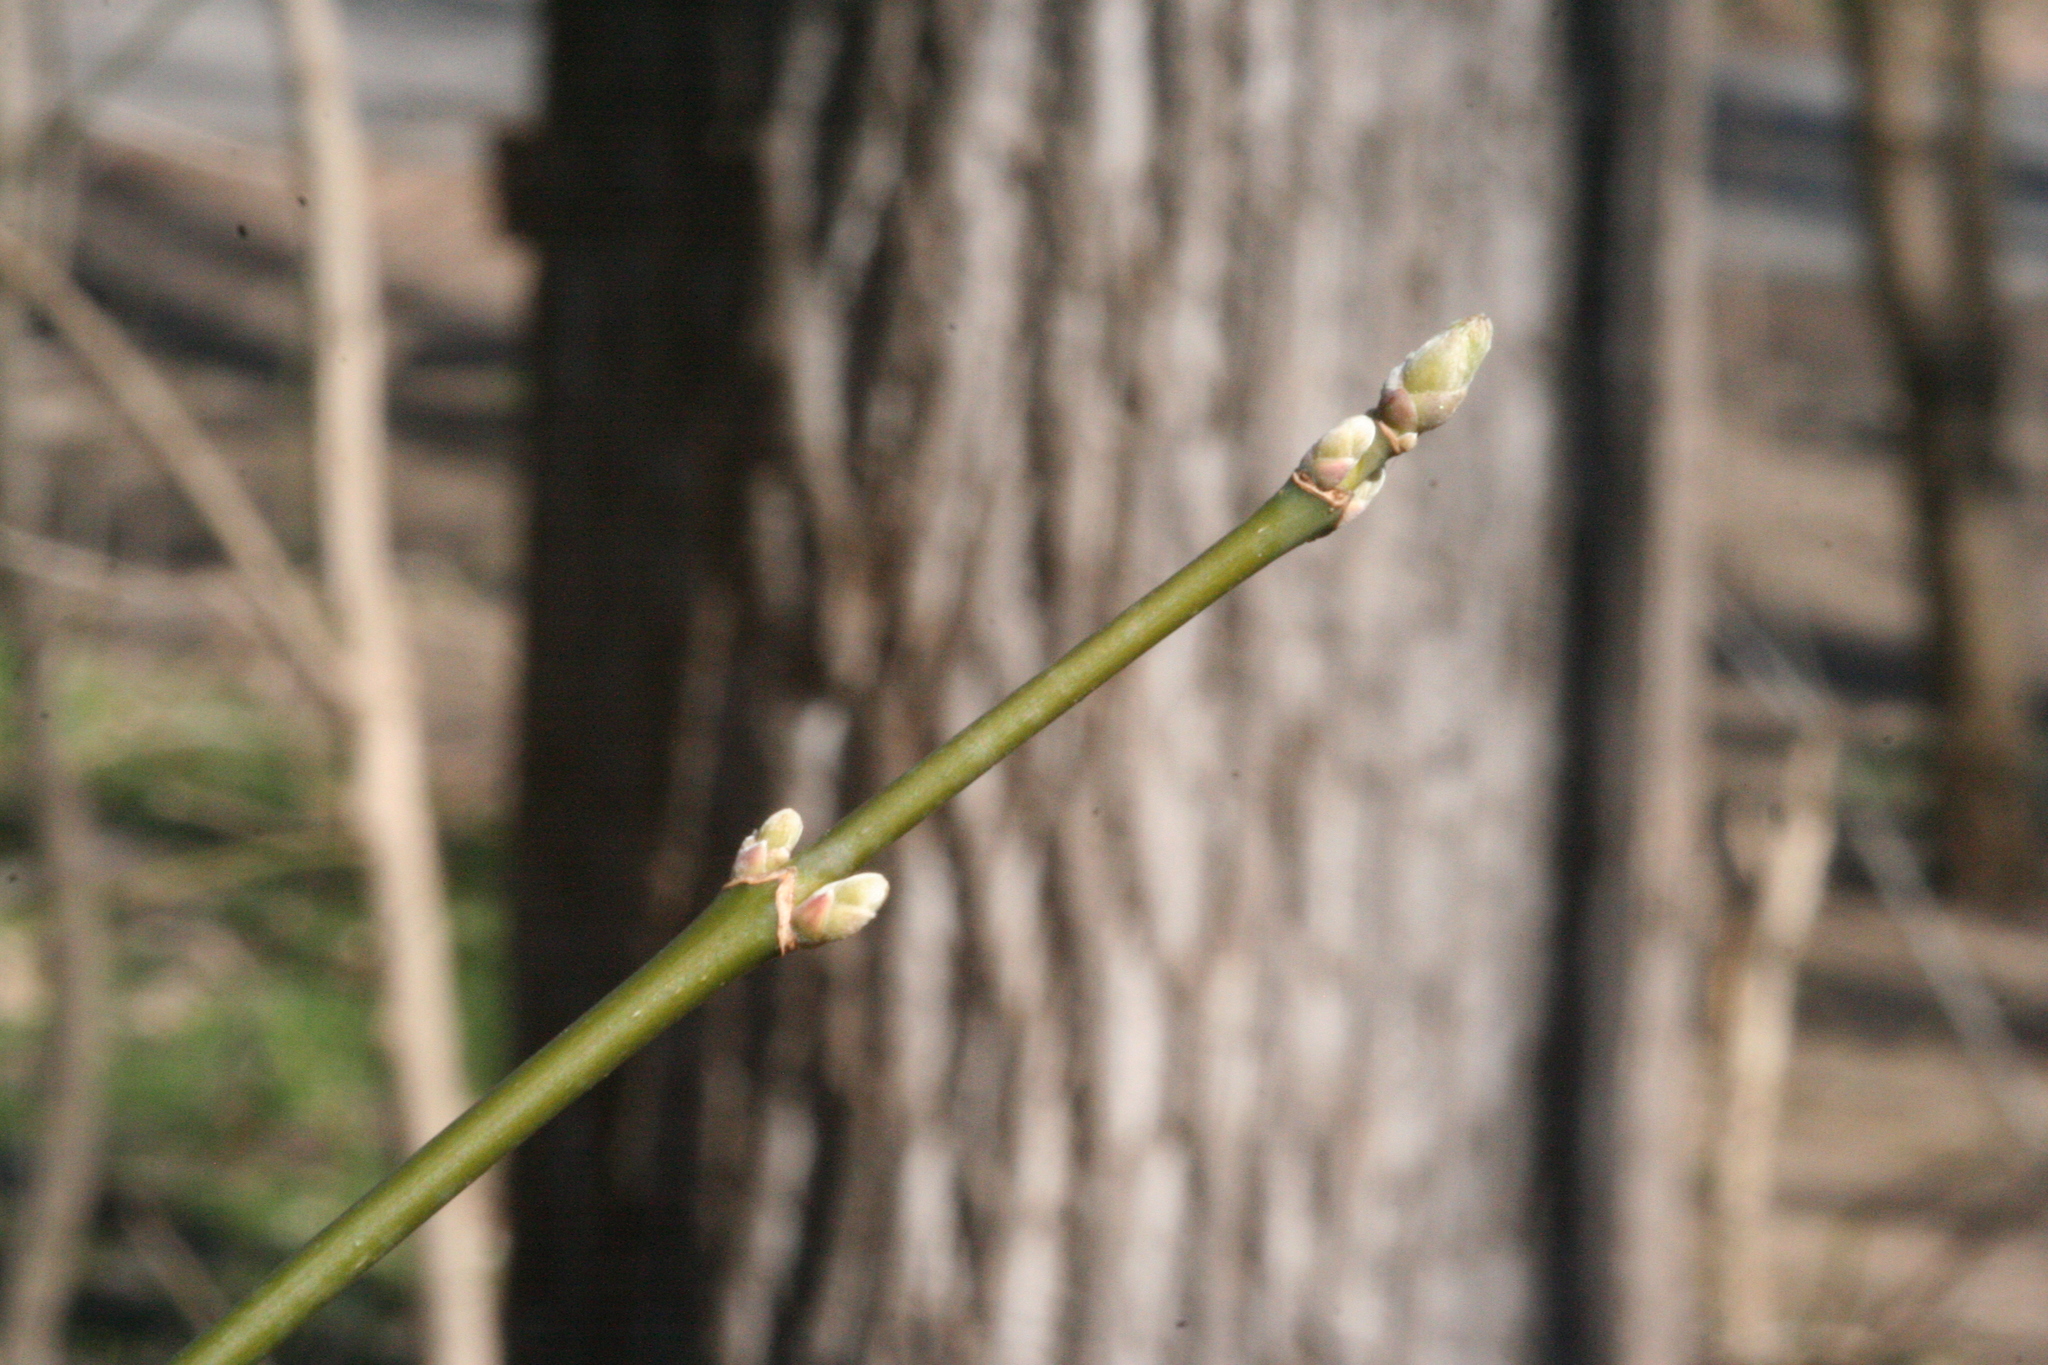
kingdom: Plantae
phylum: Tracheophyta
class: Magnoliopsida
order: Sapindales
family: Sapindaceae
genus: Acer
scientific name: Acer negundo
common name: Ashleaf maple
